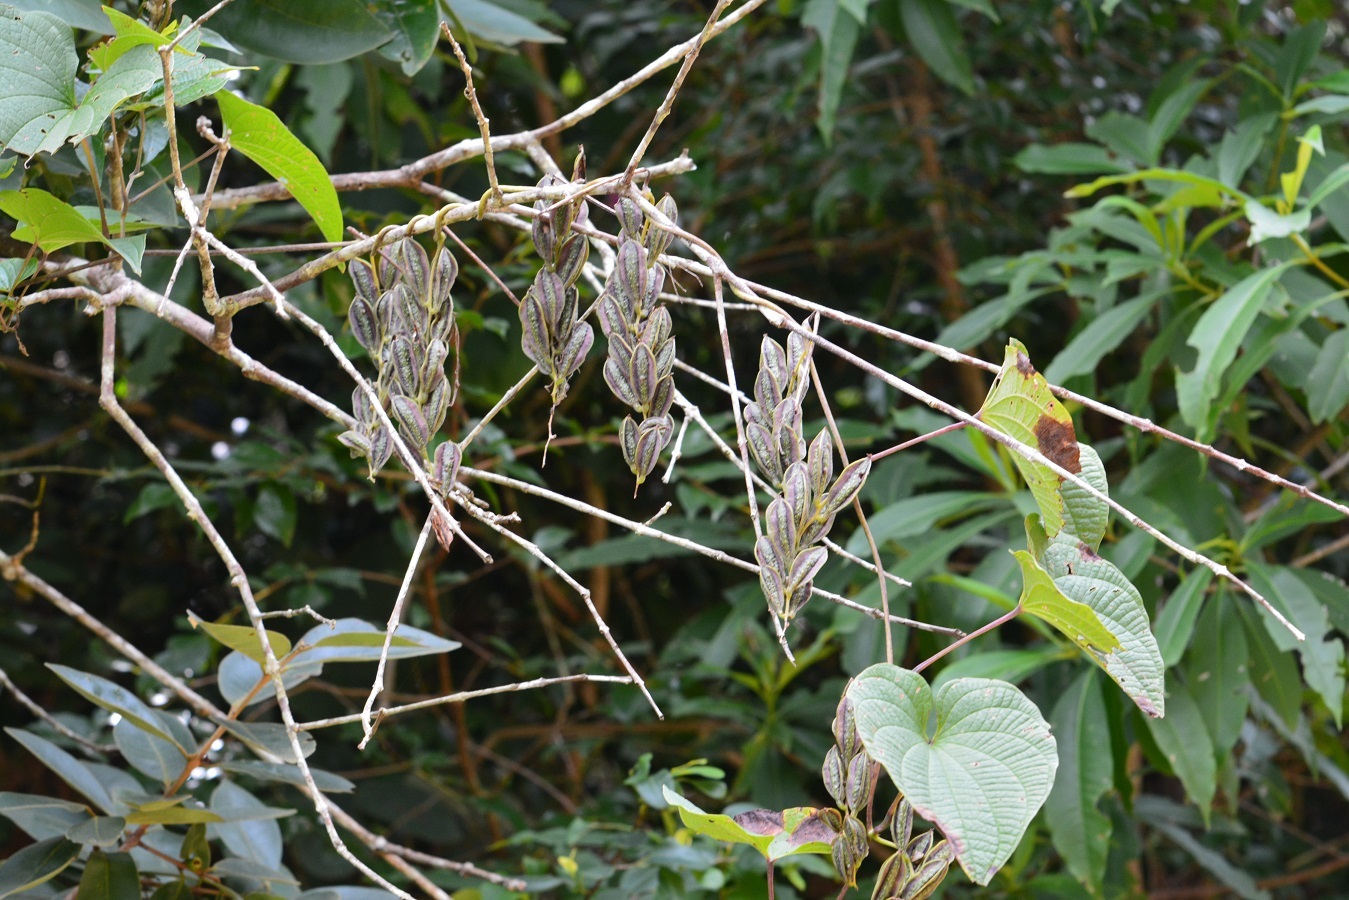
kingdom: Plantae
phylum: Tracheophyta
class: Liliopsida
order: Dioscoreales
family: Dioscoreaceae
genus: Dioscorea
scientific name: Dioscorea spiculiflora
